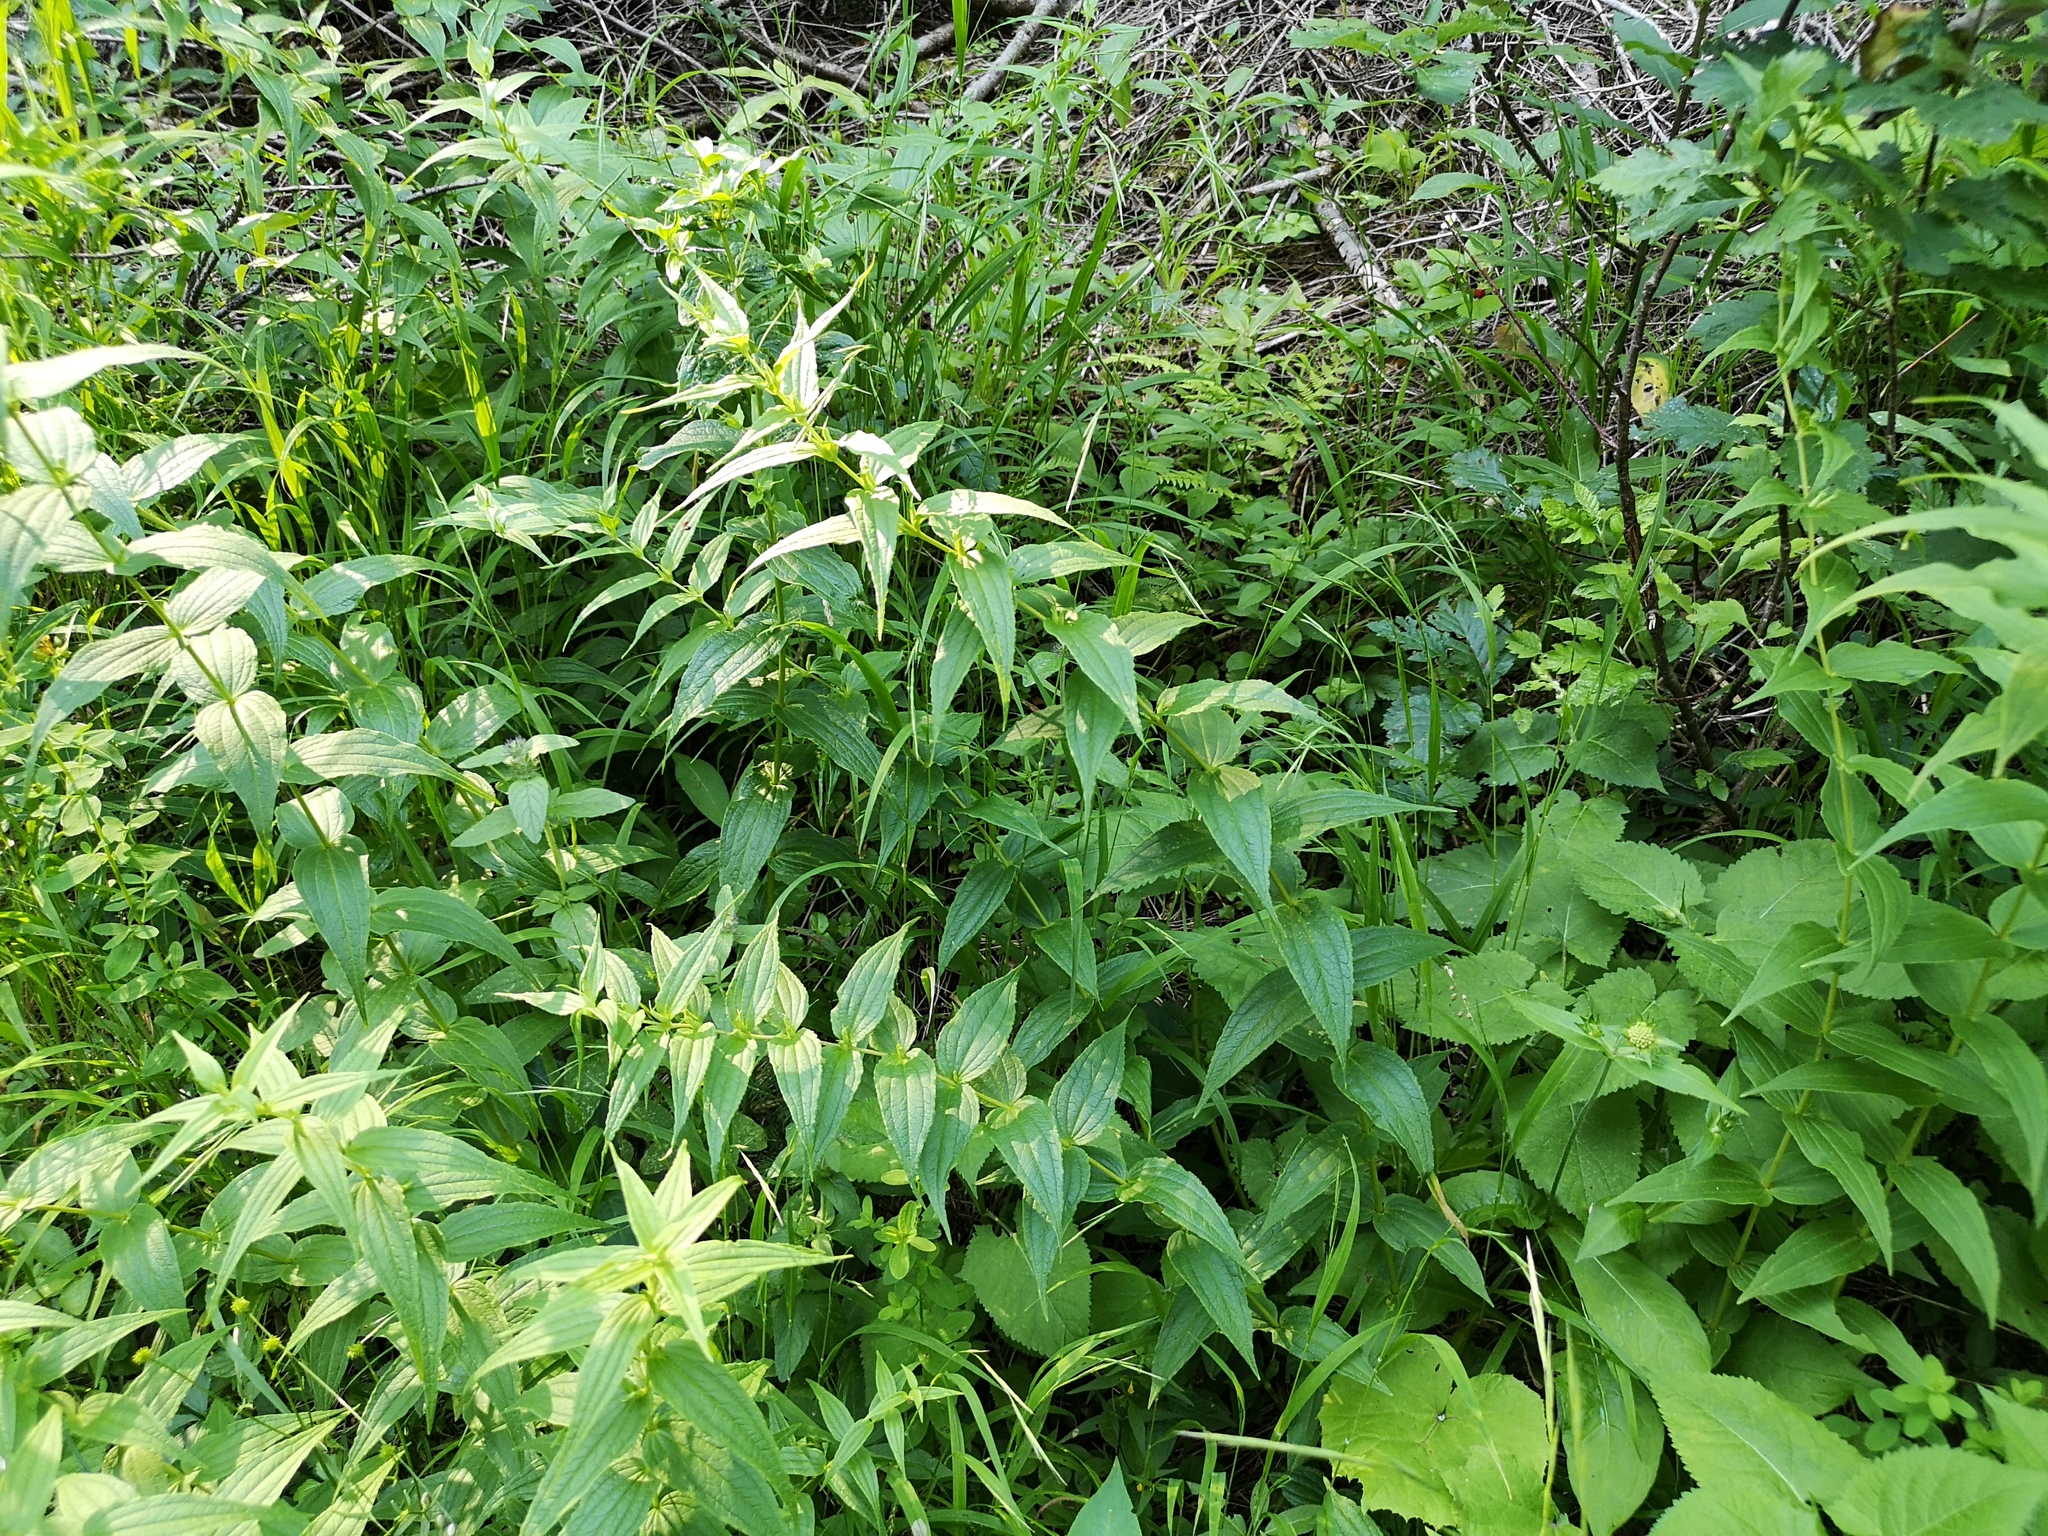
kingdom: Plantae
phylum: Tracheophyta
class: Magnoliopsida
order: Gentianales
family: Gentianaceae
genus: Gentiana
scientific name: Gentiana asclepiadea
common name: Willow gentian
